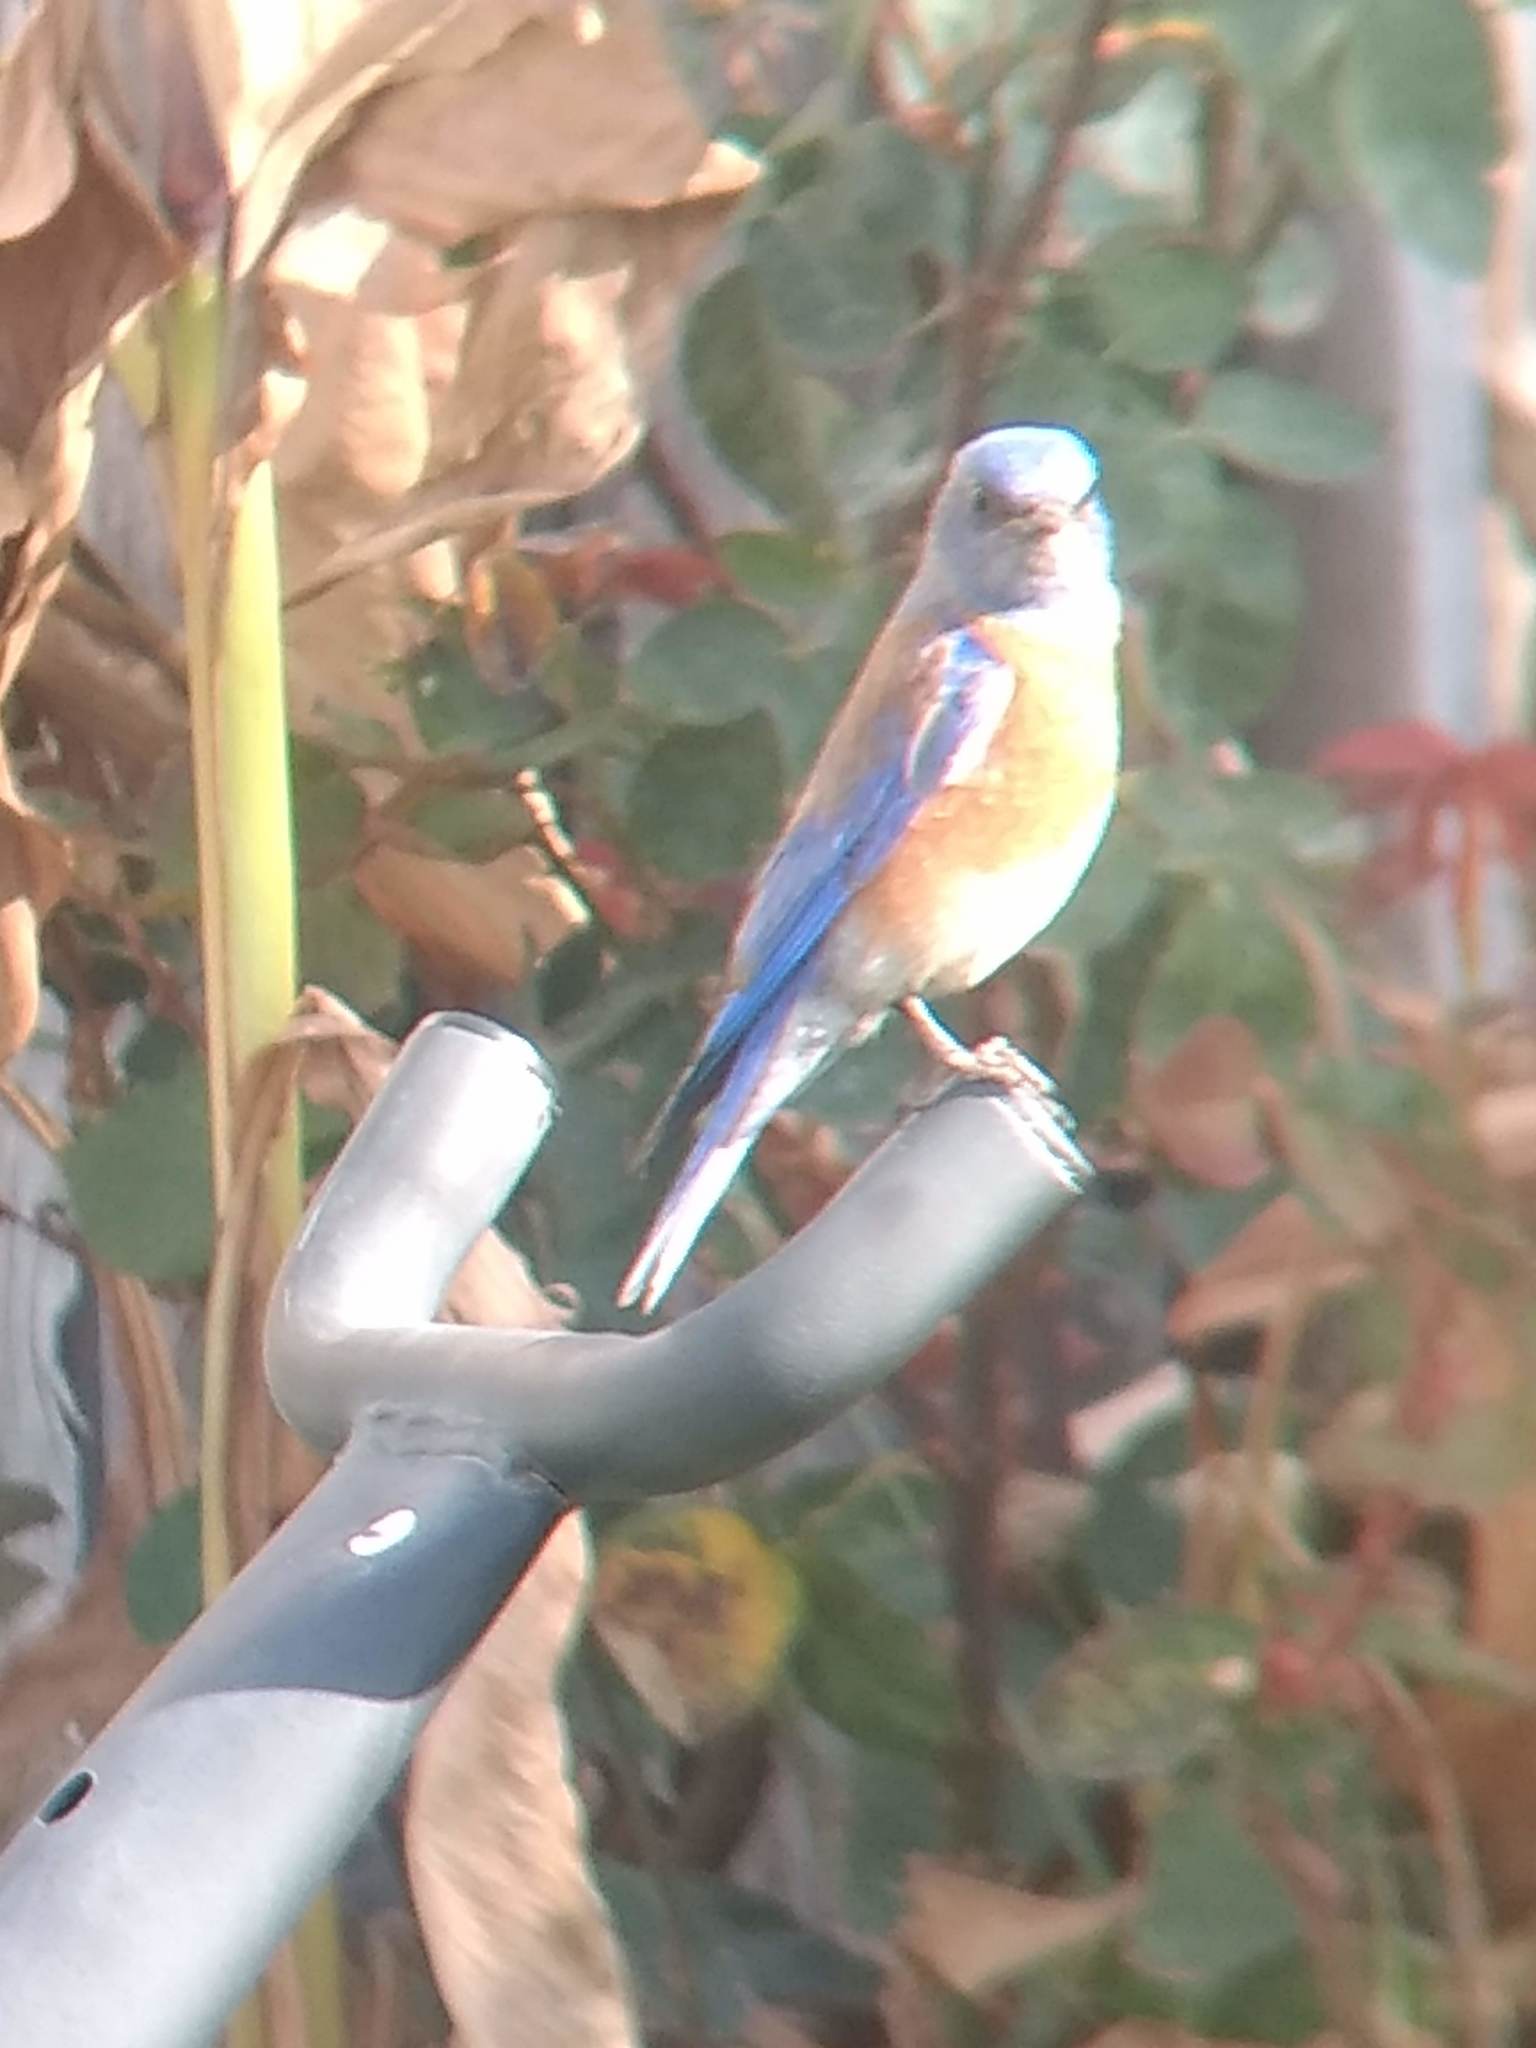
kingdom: Animalia
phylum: Chordata
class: Aves
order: Passeriformes
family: Turdidae
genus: Sialia
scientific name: Sialia mexicana
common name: Western bluebird
